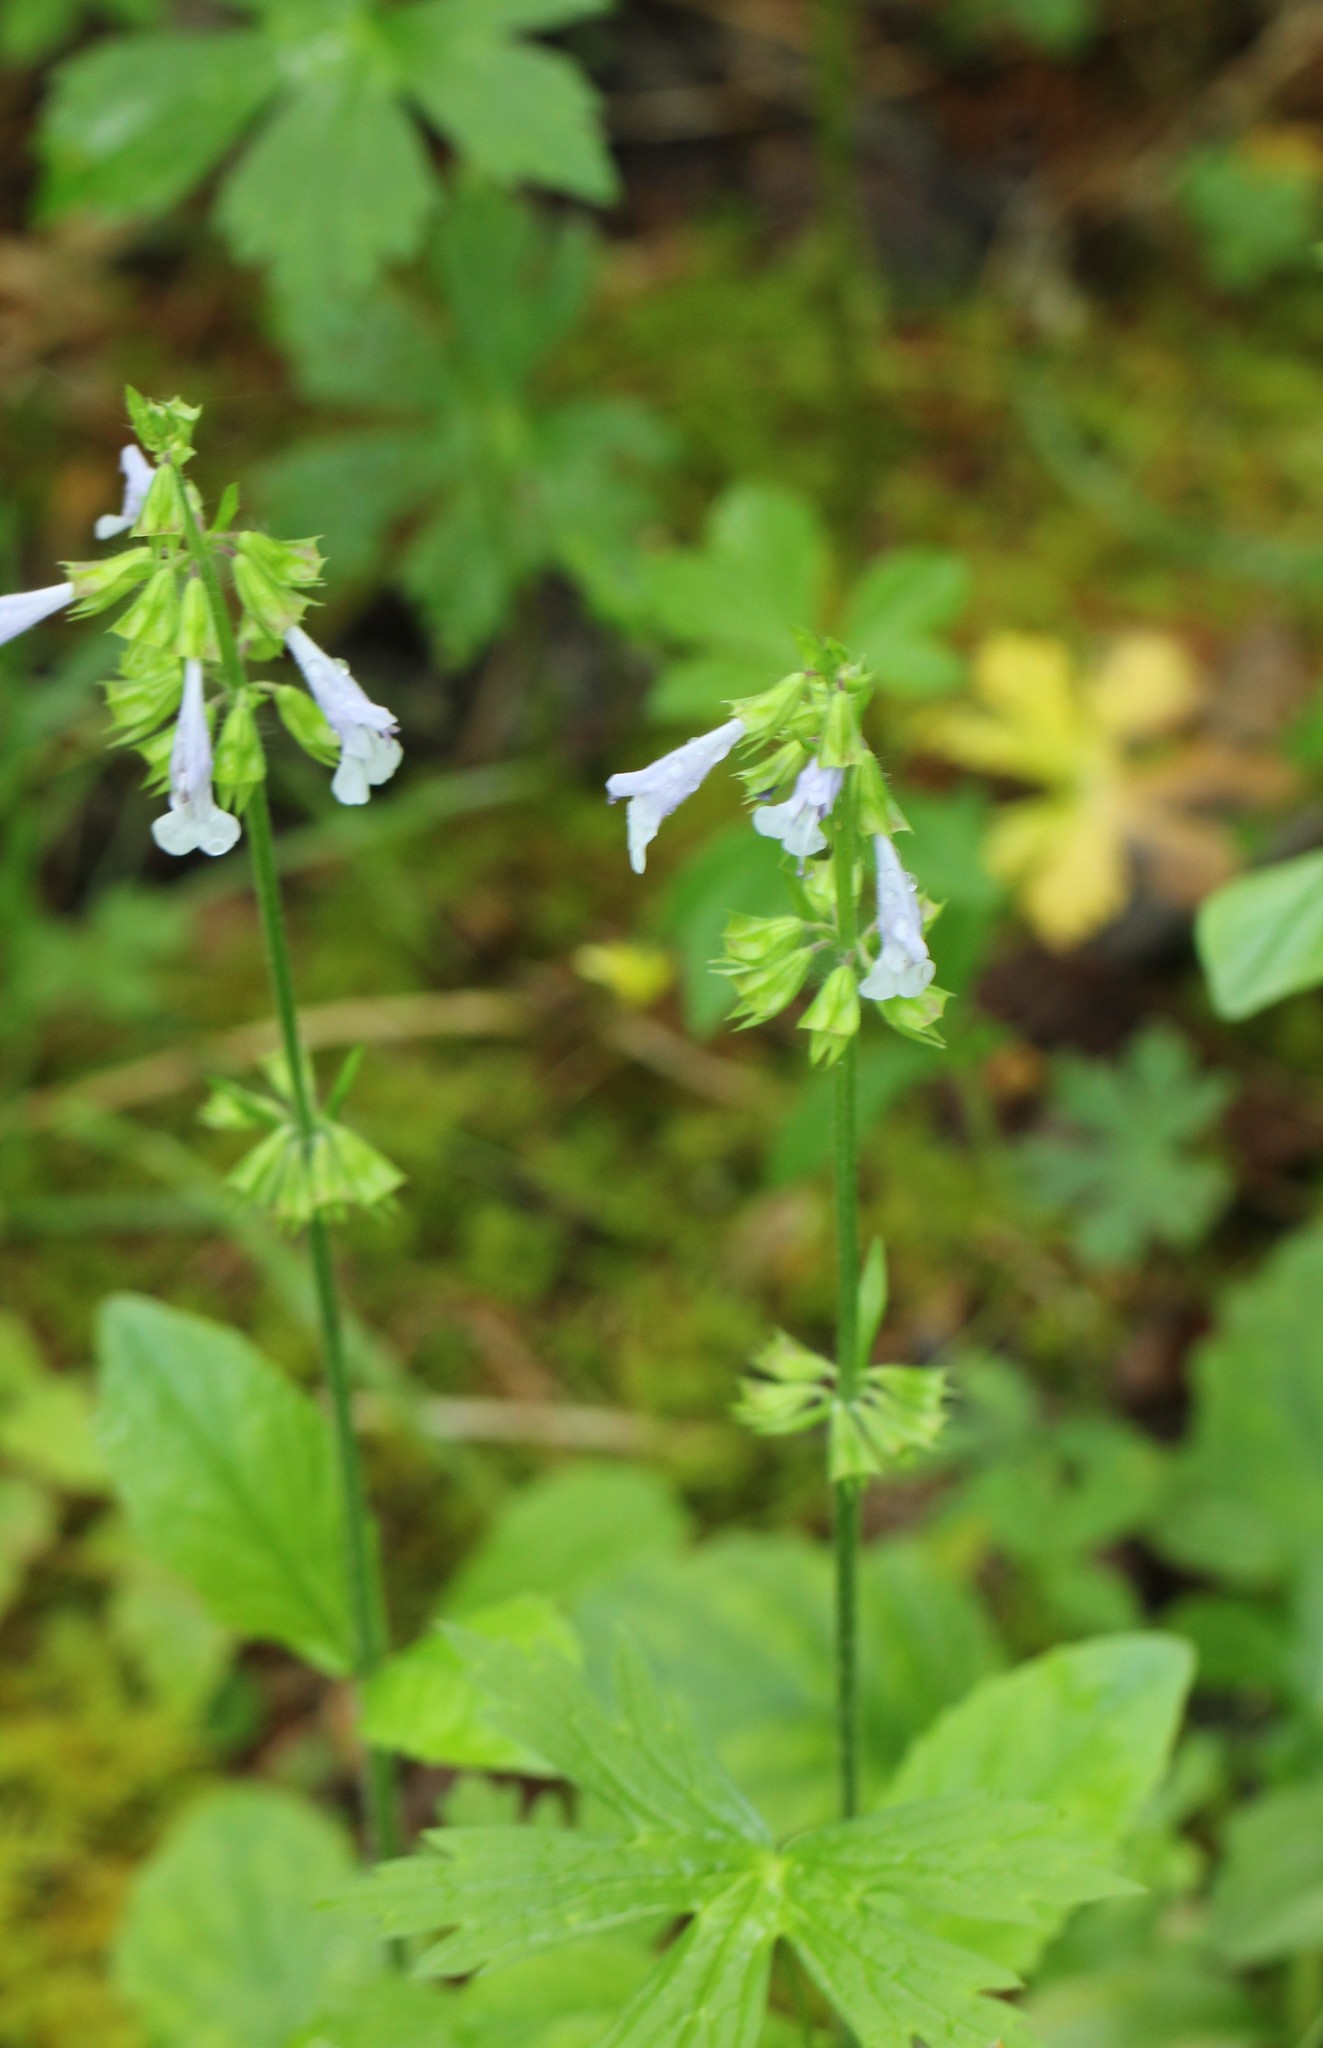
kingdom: Plantae
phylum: Tracheophyta
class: Magnoliopsida
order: Lamiales
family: Lamiaceae
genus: Salvia
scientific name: Salvia lyrata
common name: Cancerweed
